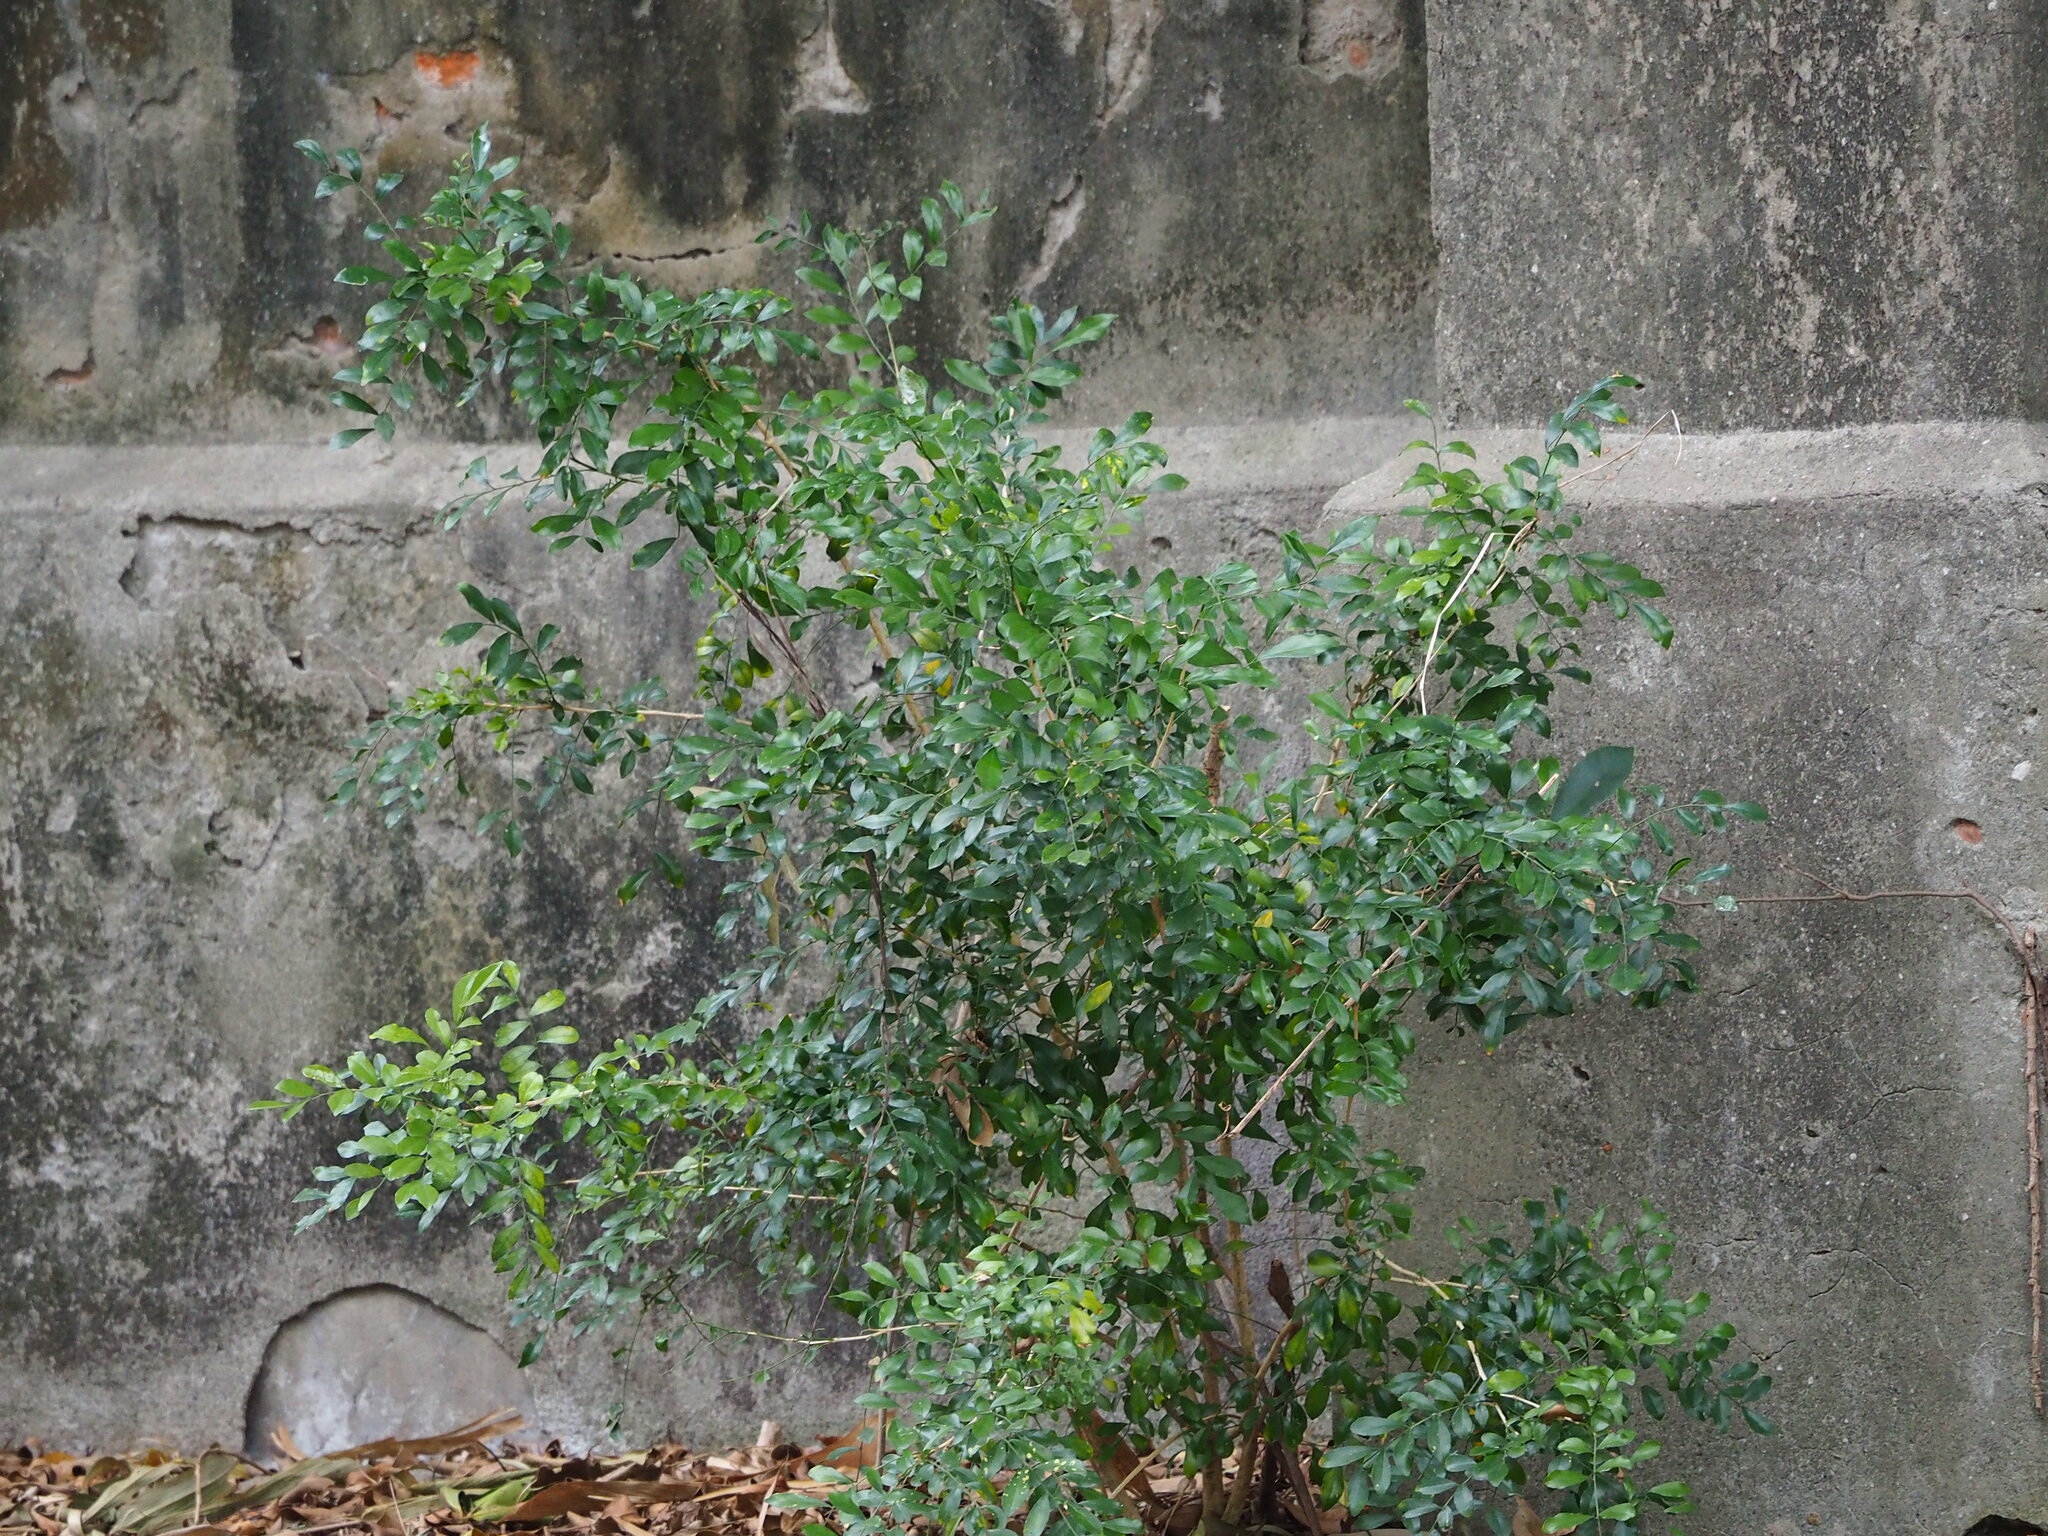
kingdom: Plantae
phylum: Tracheophyta
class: Magnoliopsida
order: Sapindales
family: Rutaceae
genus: Murraya
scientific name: Murraya paniculata
